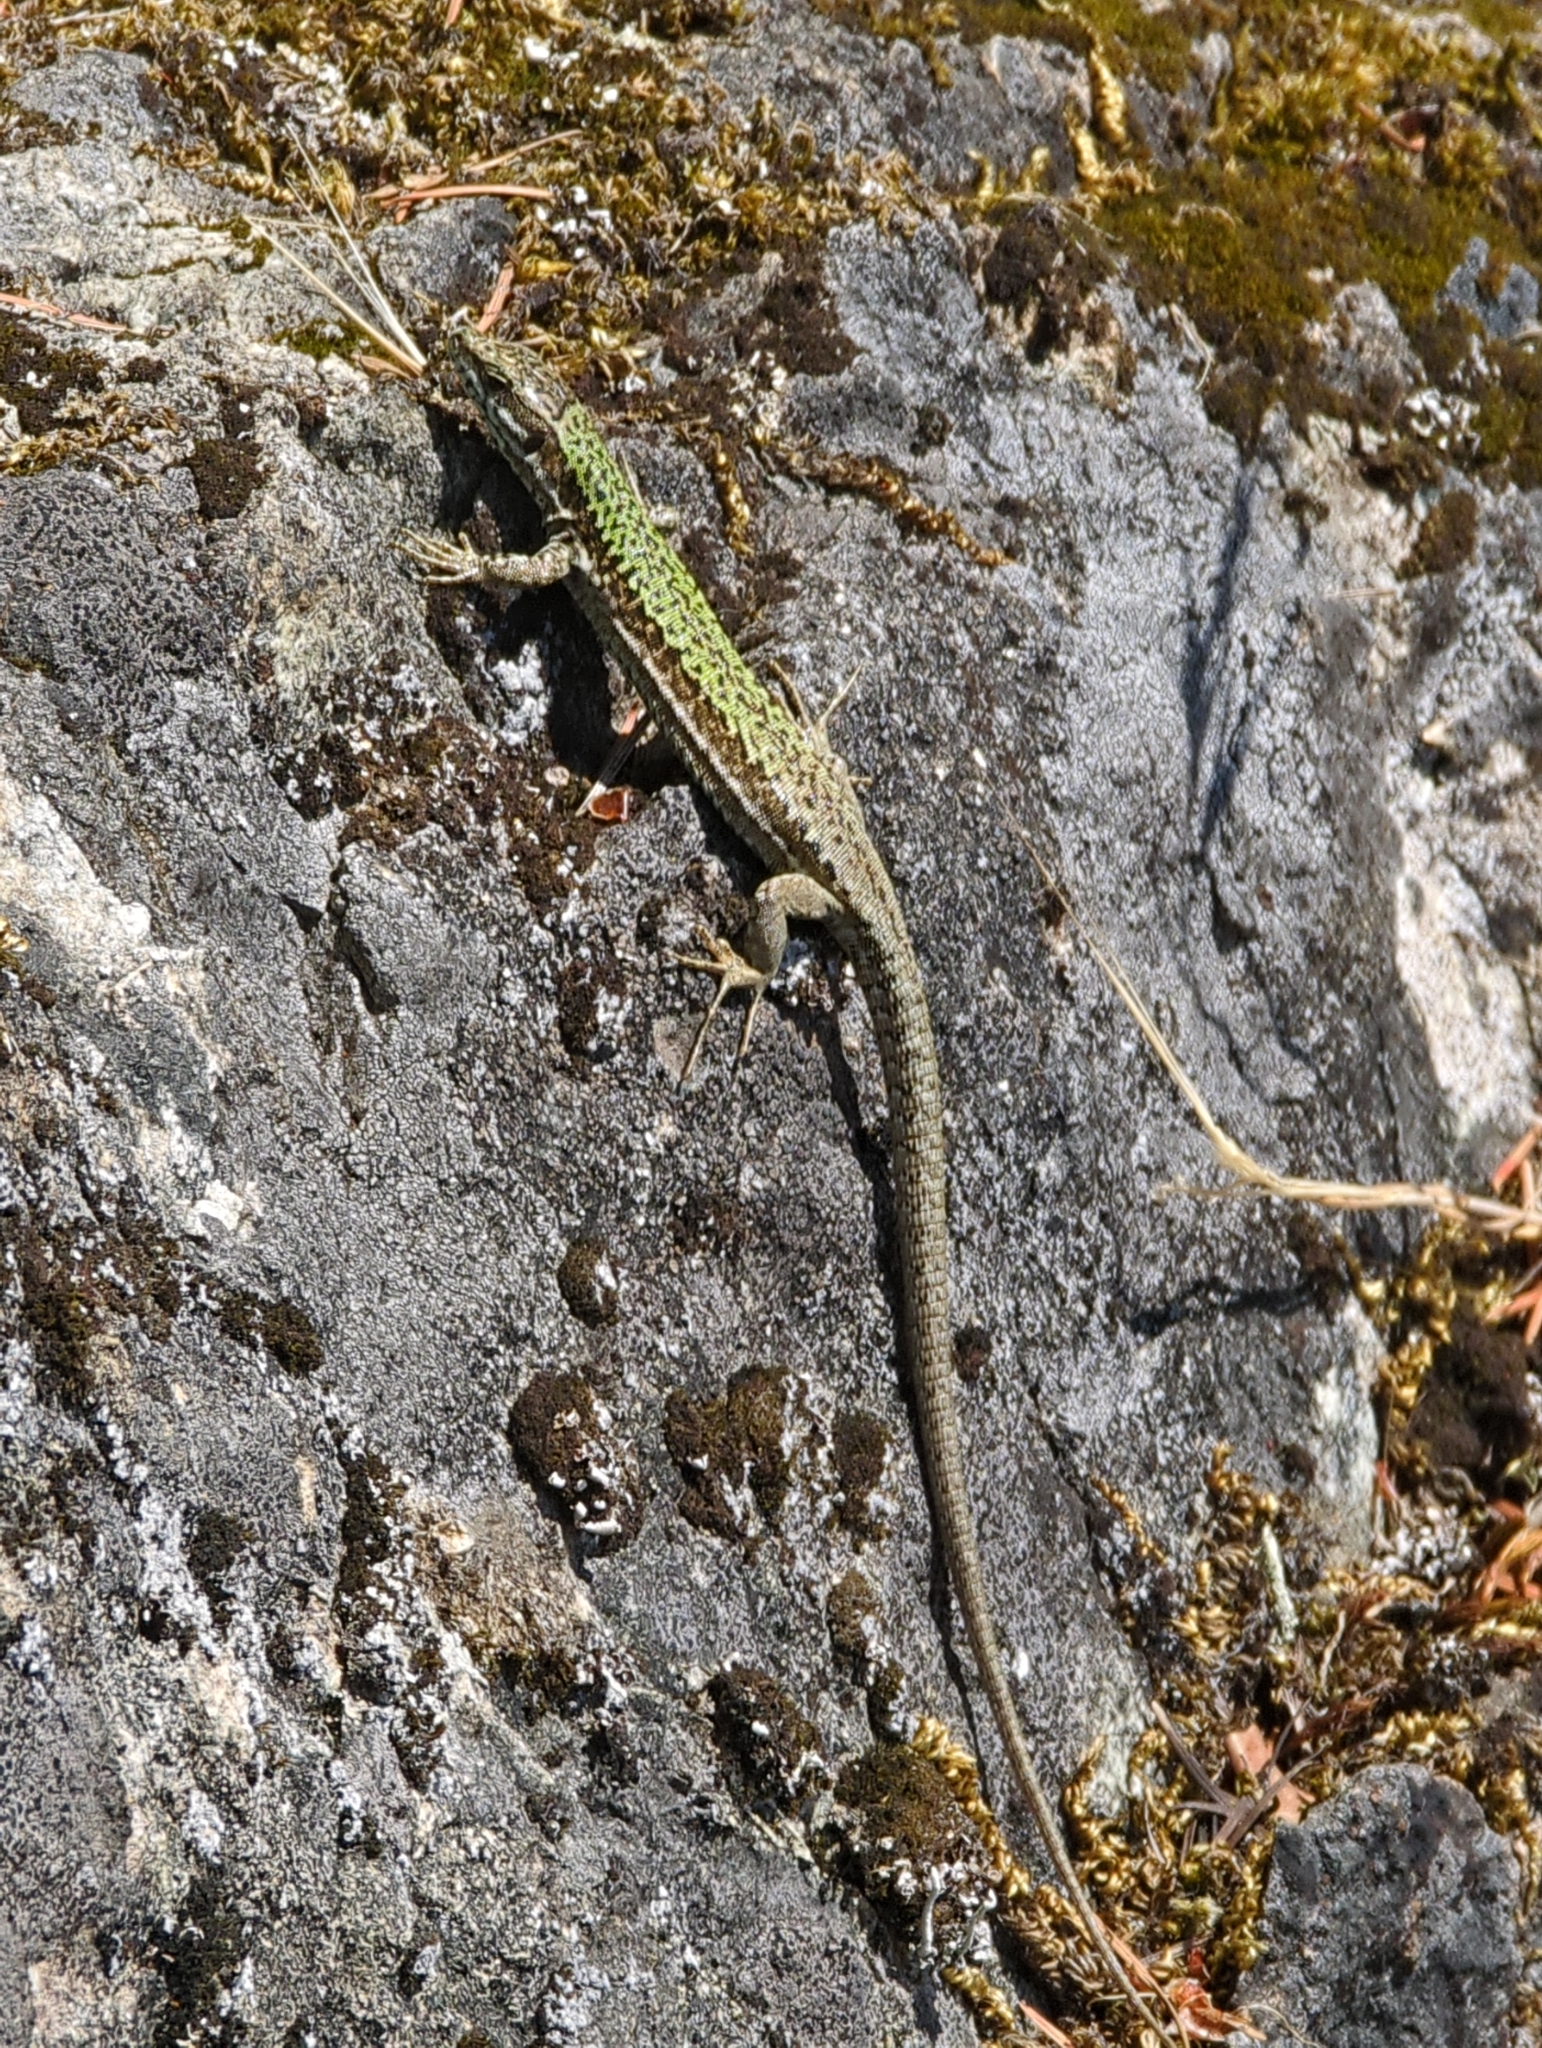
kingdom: Animalia
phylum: Chordata
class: Squamata
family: Lacertidae
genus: Podarcis
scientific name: Podarcis muralis
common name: Common wall lizard
